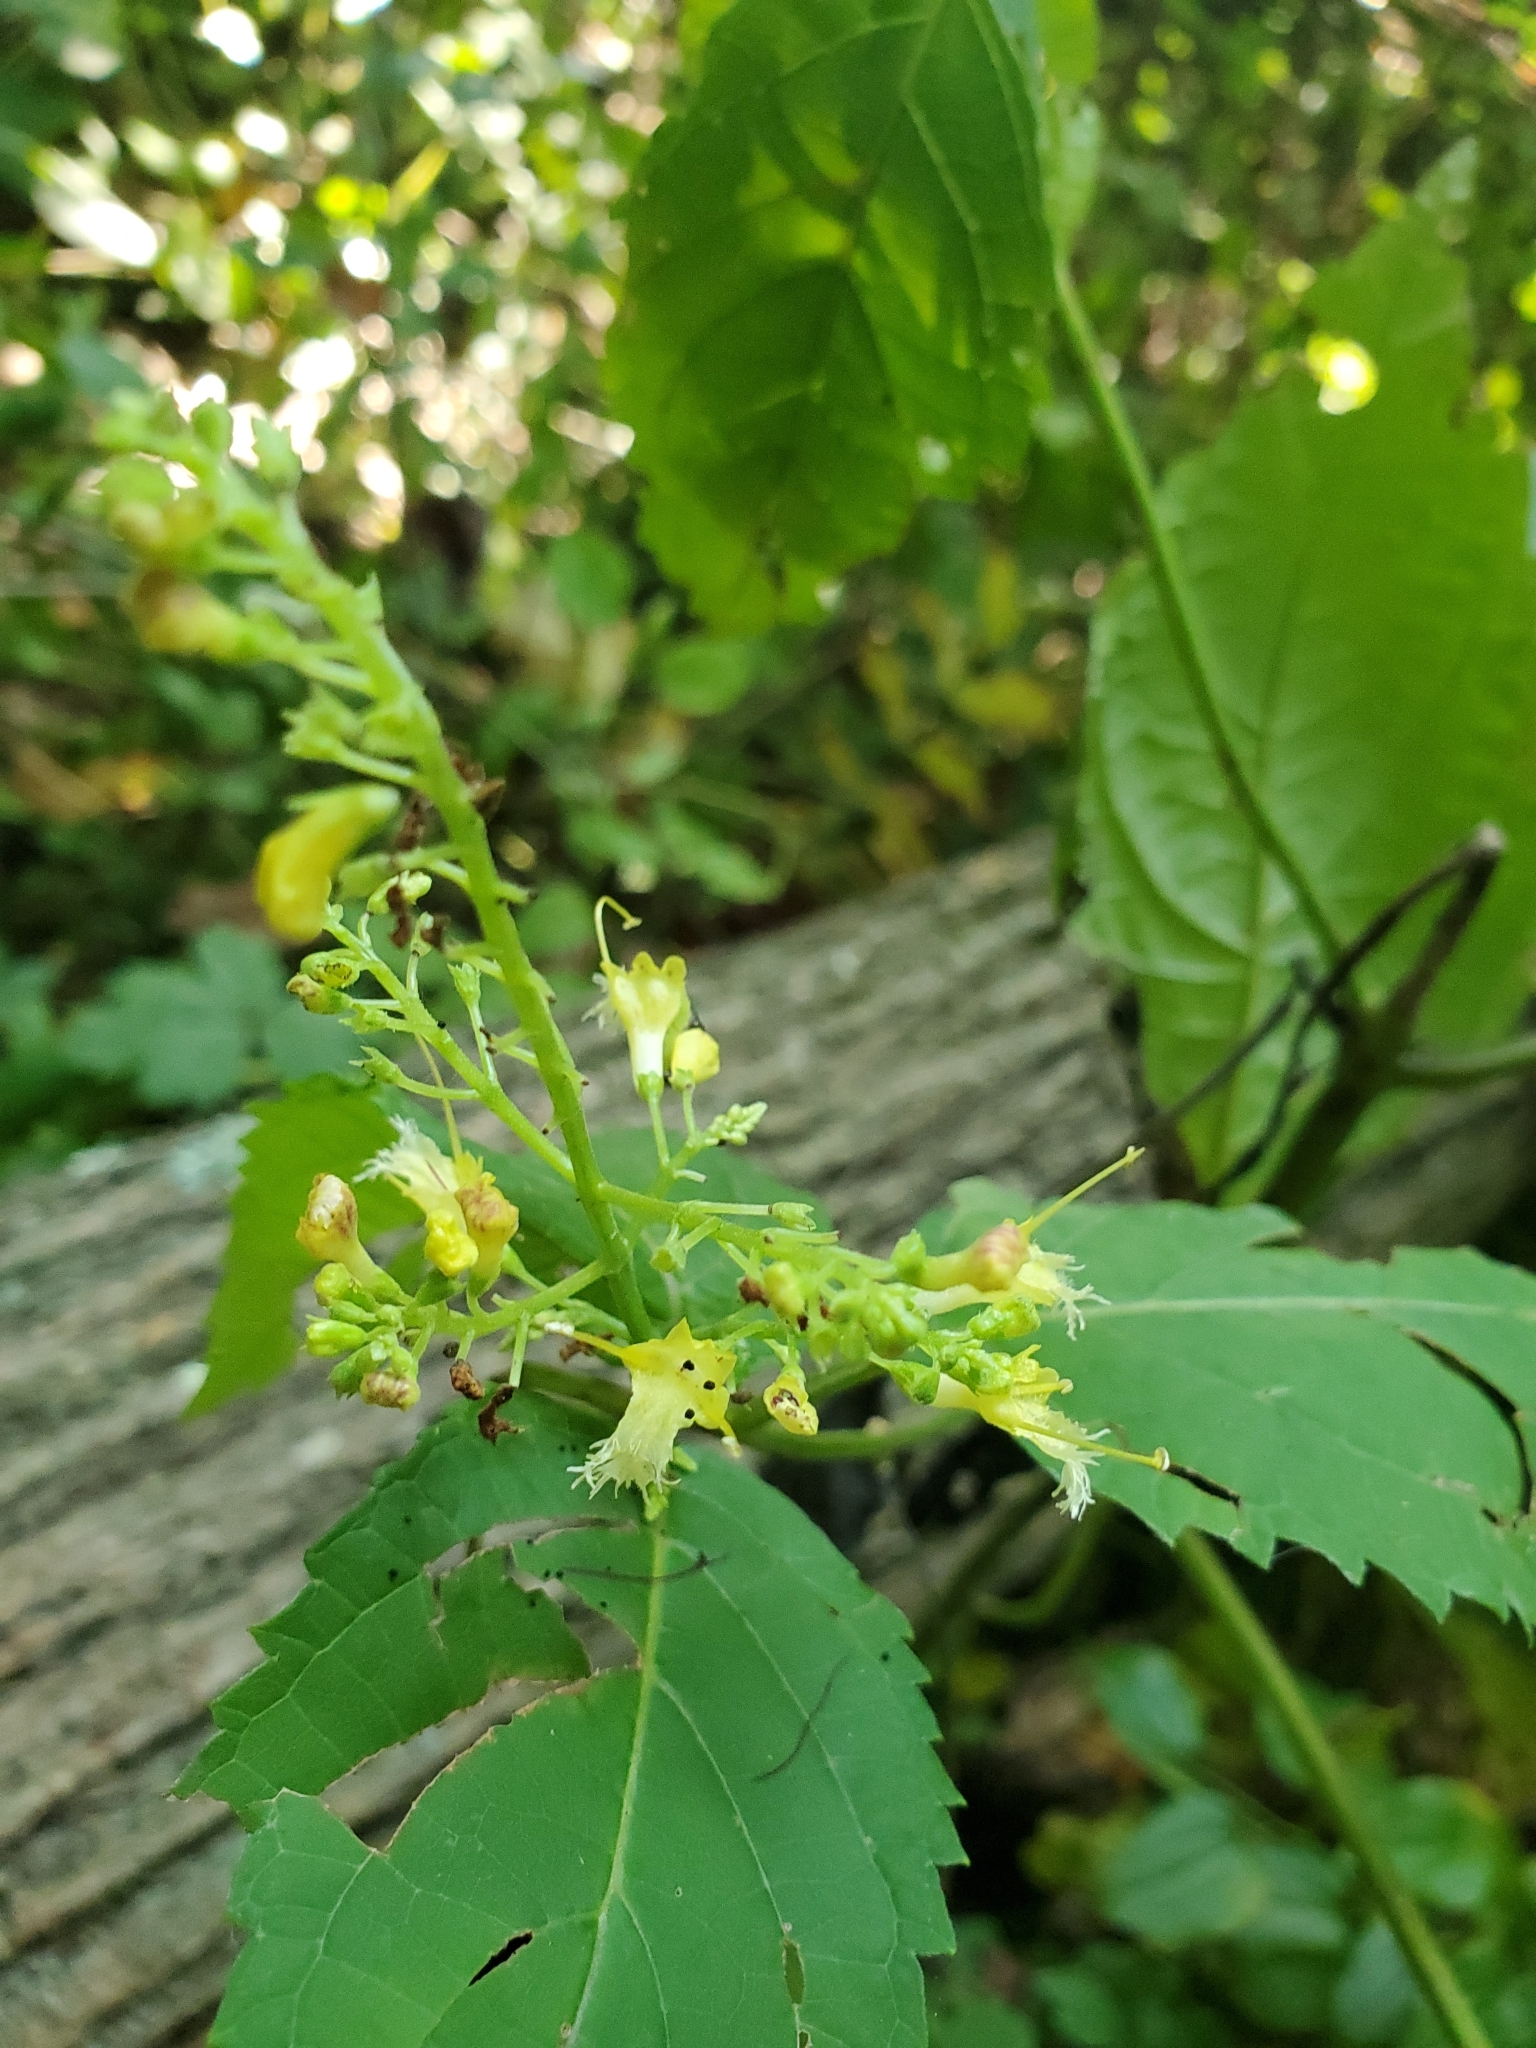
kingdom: Plantae
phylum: Tracheophyta
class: Magnoliopsida
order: Lamiales
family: Lamiaceae
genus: Collinsonia
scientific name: Collinsonia canadensis
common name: Northern horsebalm
